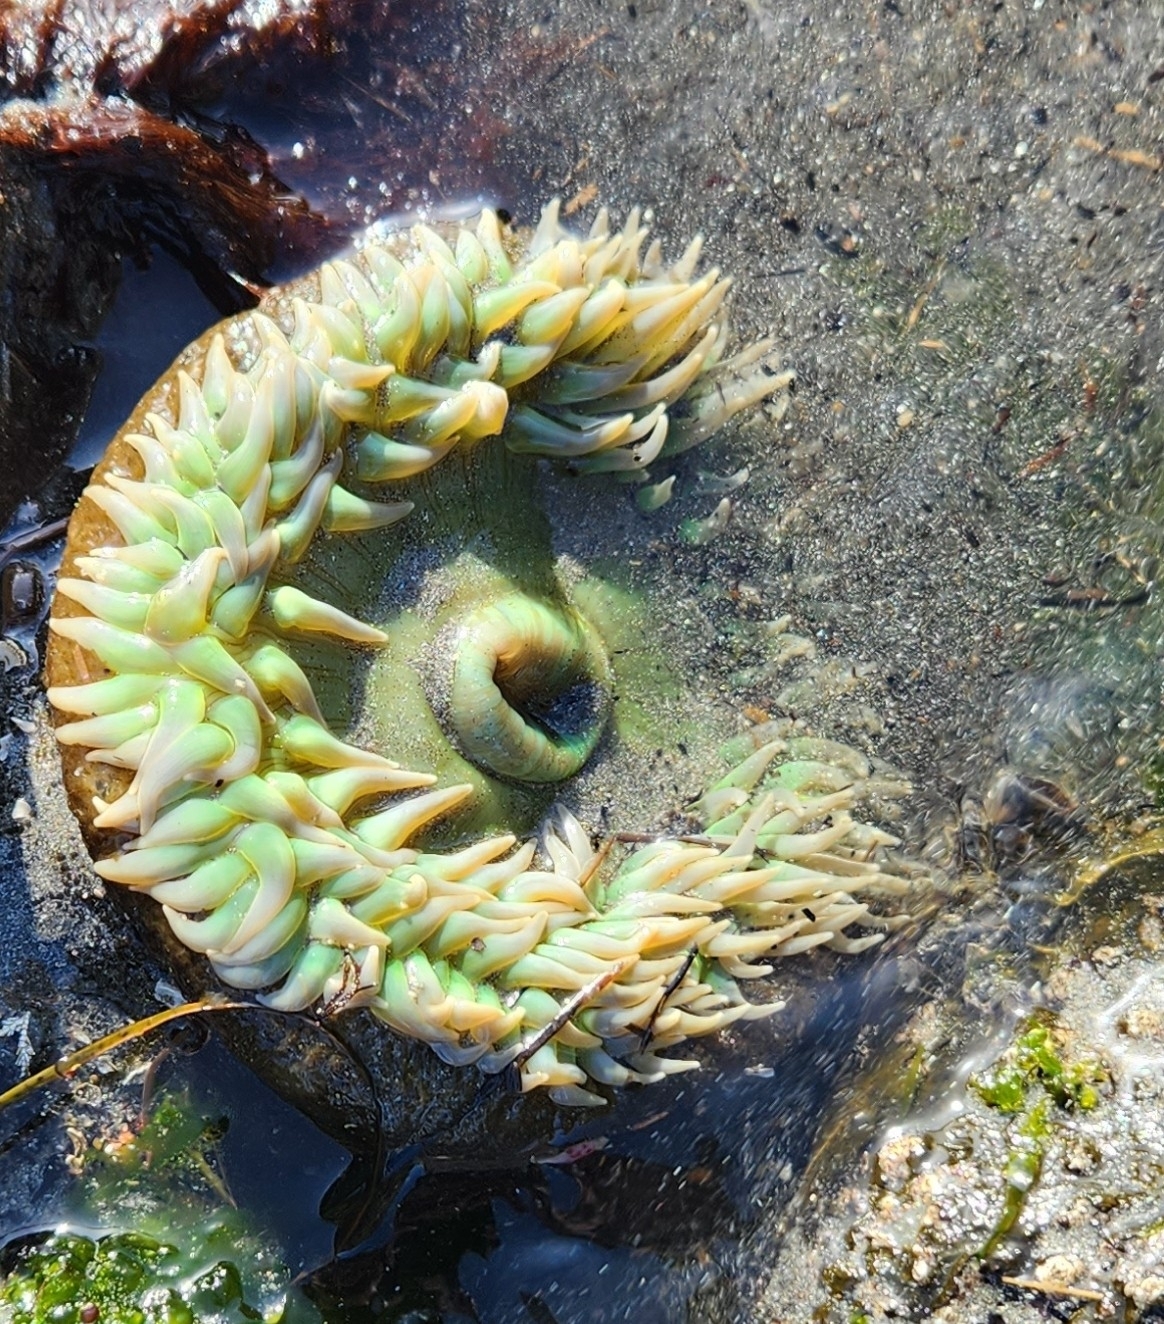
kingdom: Animalia
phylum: Cnidaria
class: Anthozoa
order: Actiniaria
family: Actiniidae
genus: Anthopleura
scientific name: Anthopleura xanthogrammica
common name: Giant green anemone
